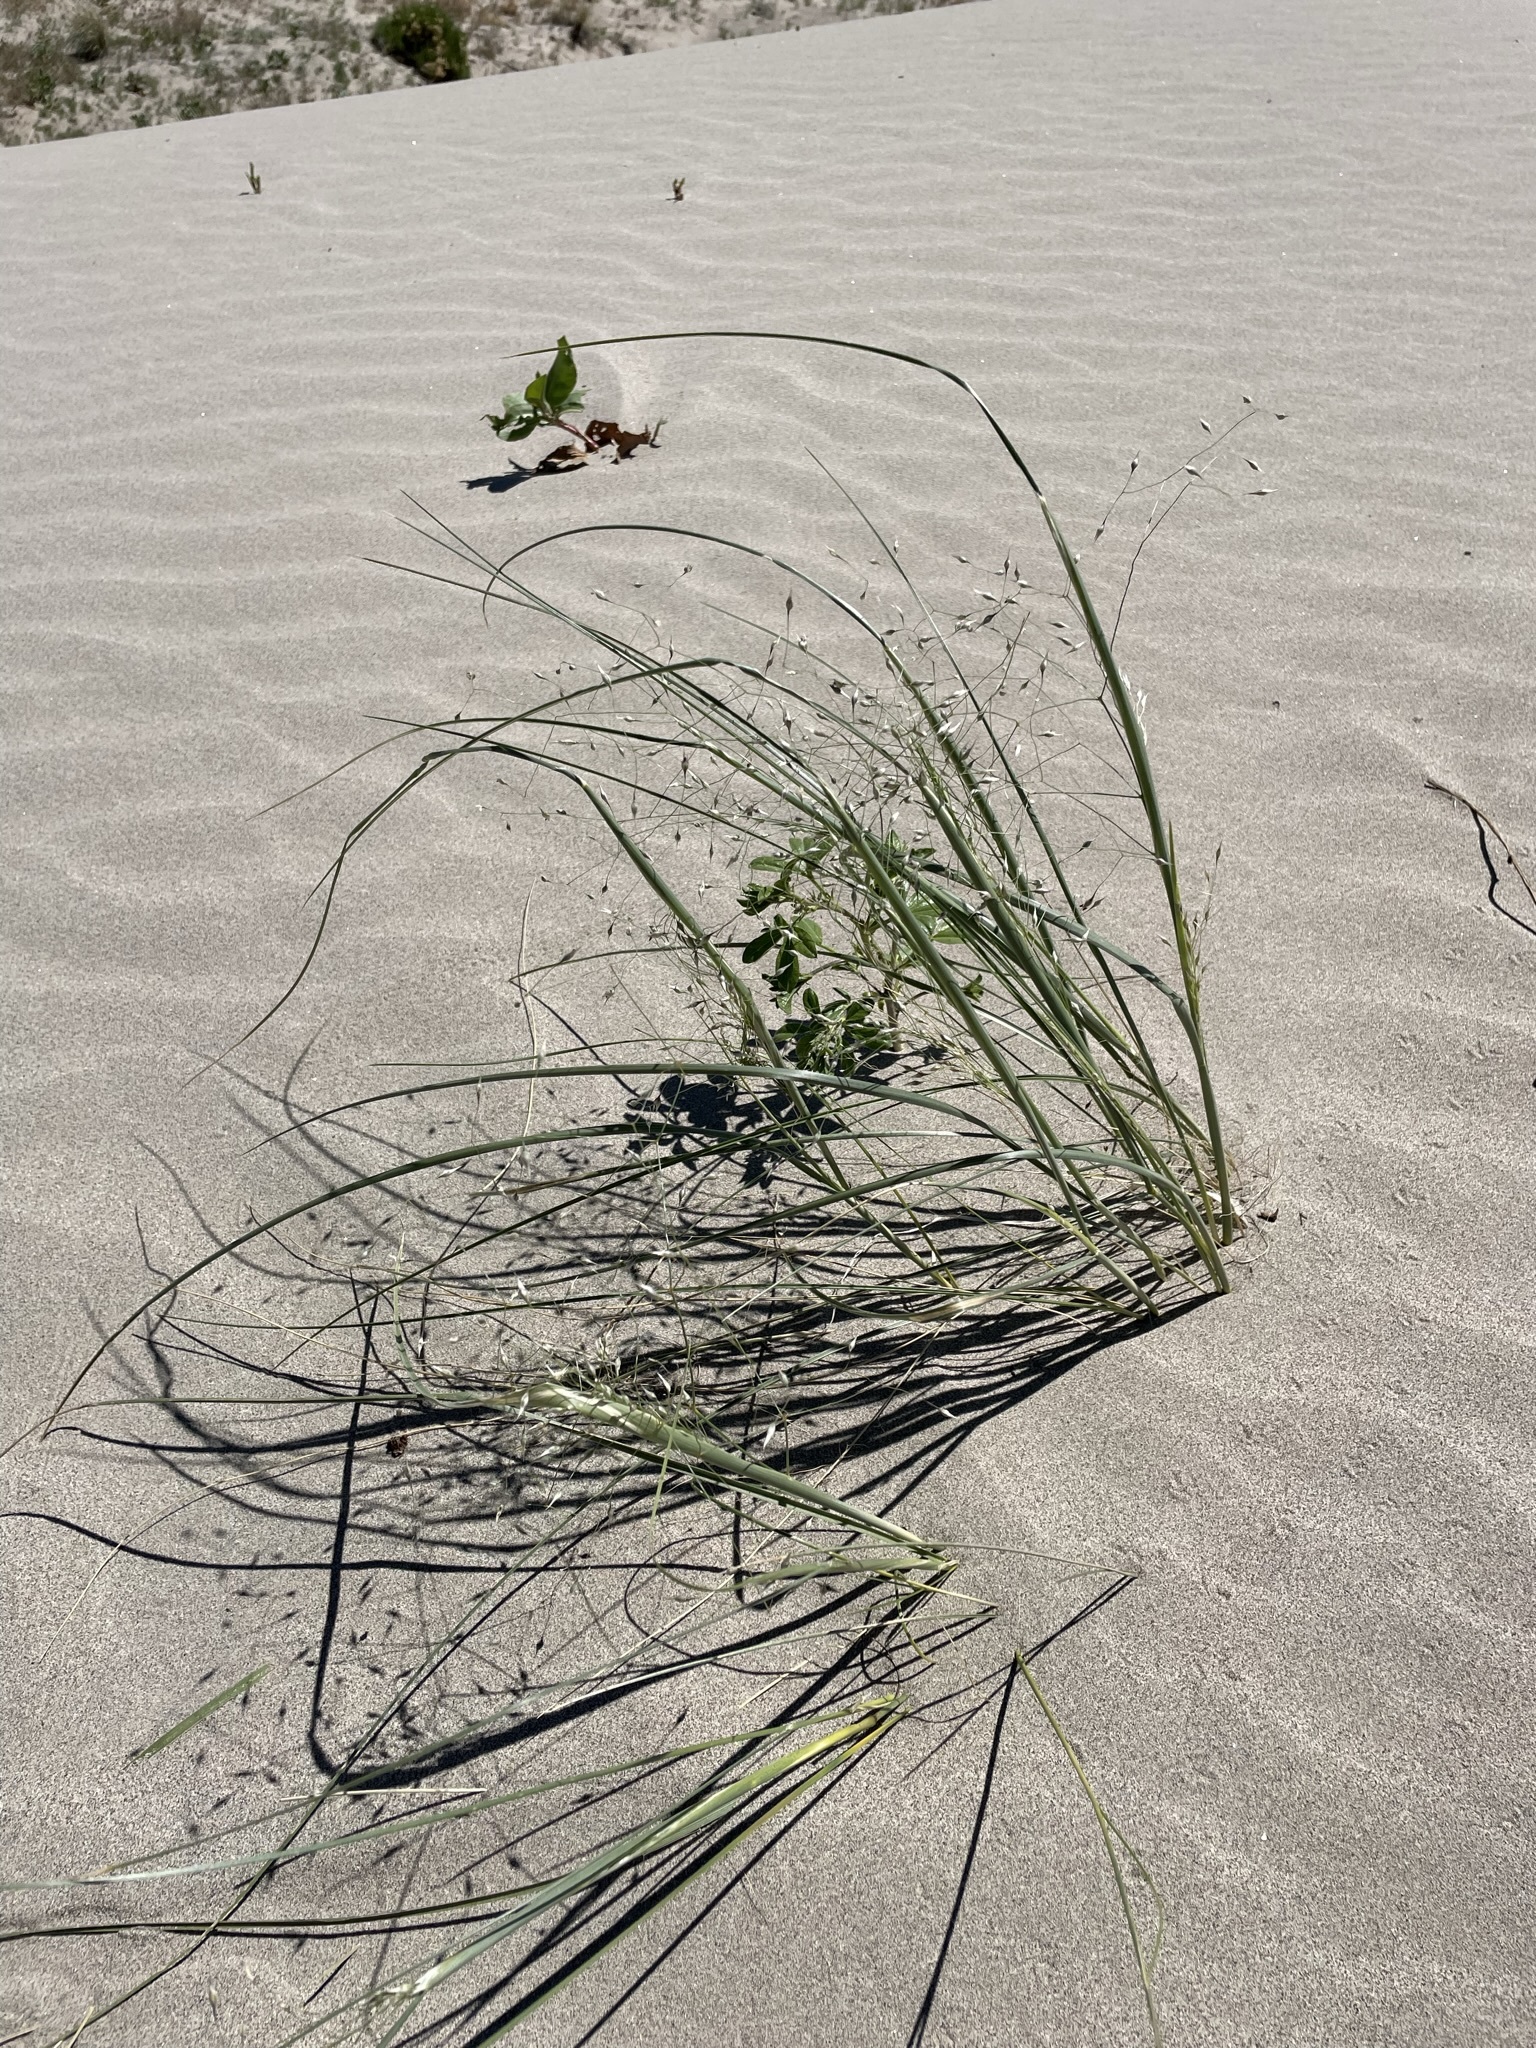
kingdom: Plantae
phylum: Tracheophyta
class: Liliopsida
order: Poales
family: Poaceae
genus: Eriocoma
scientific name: Eriocoma hymenoides
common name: Indian mountain ricegrass
